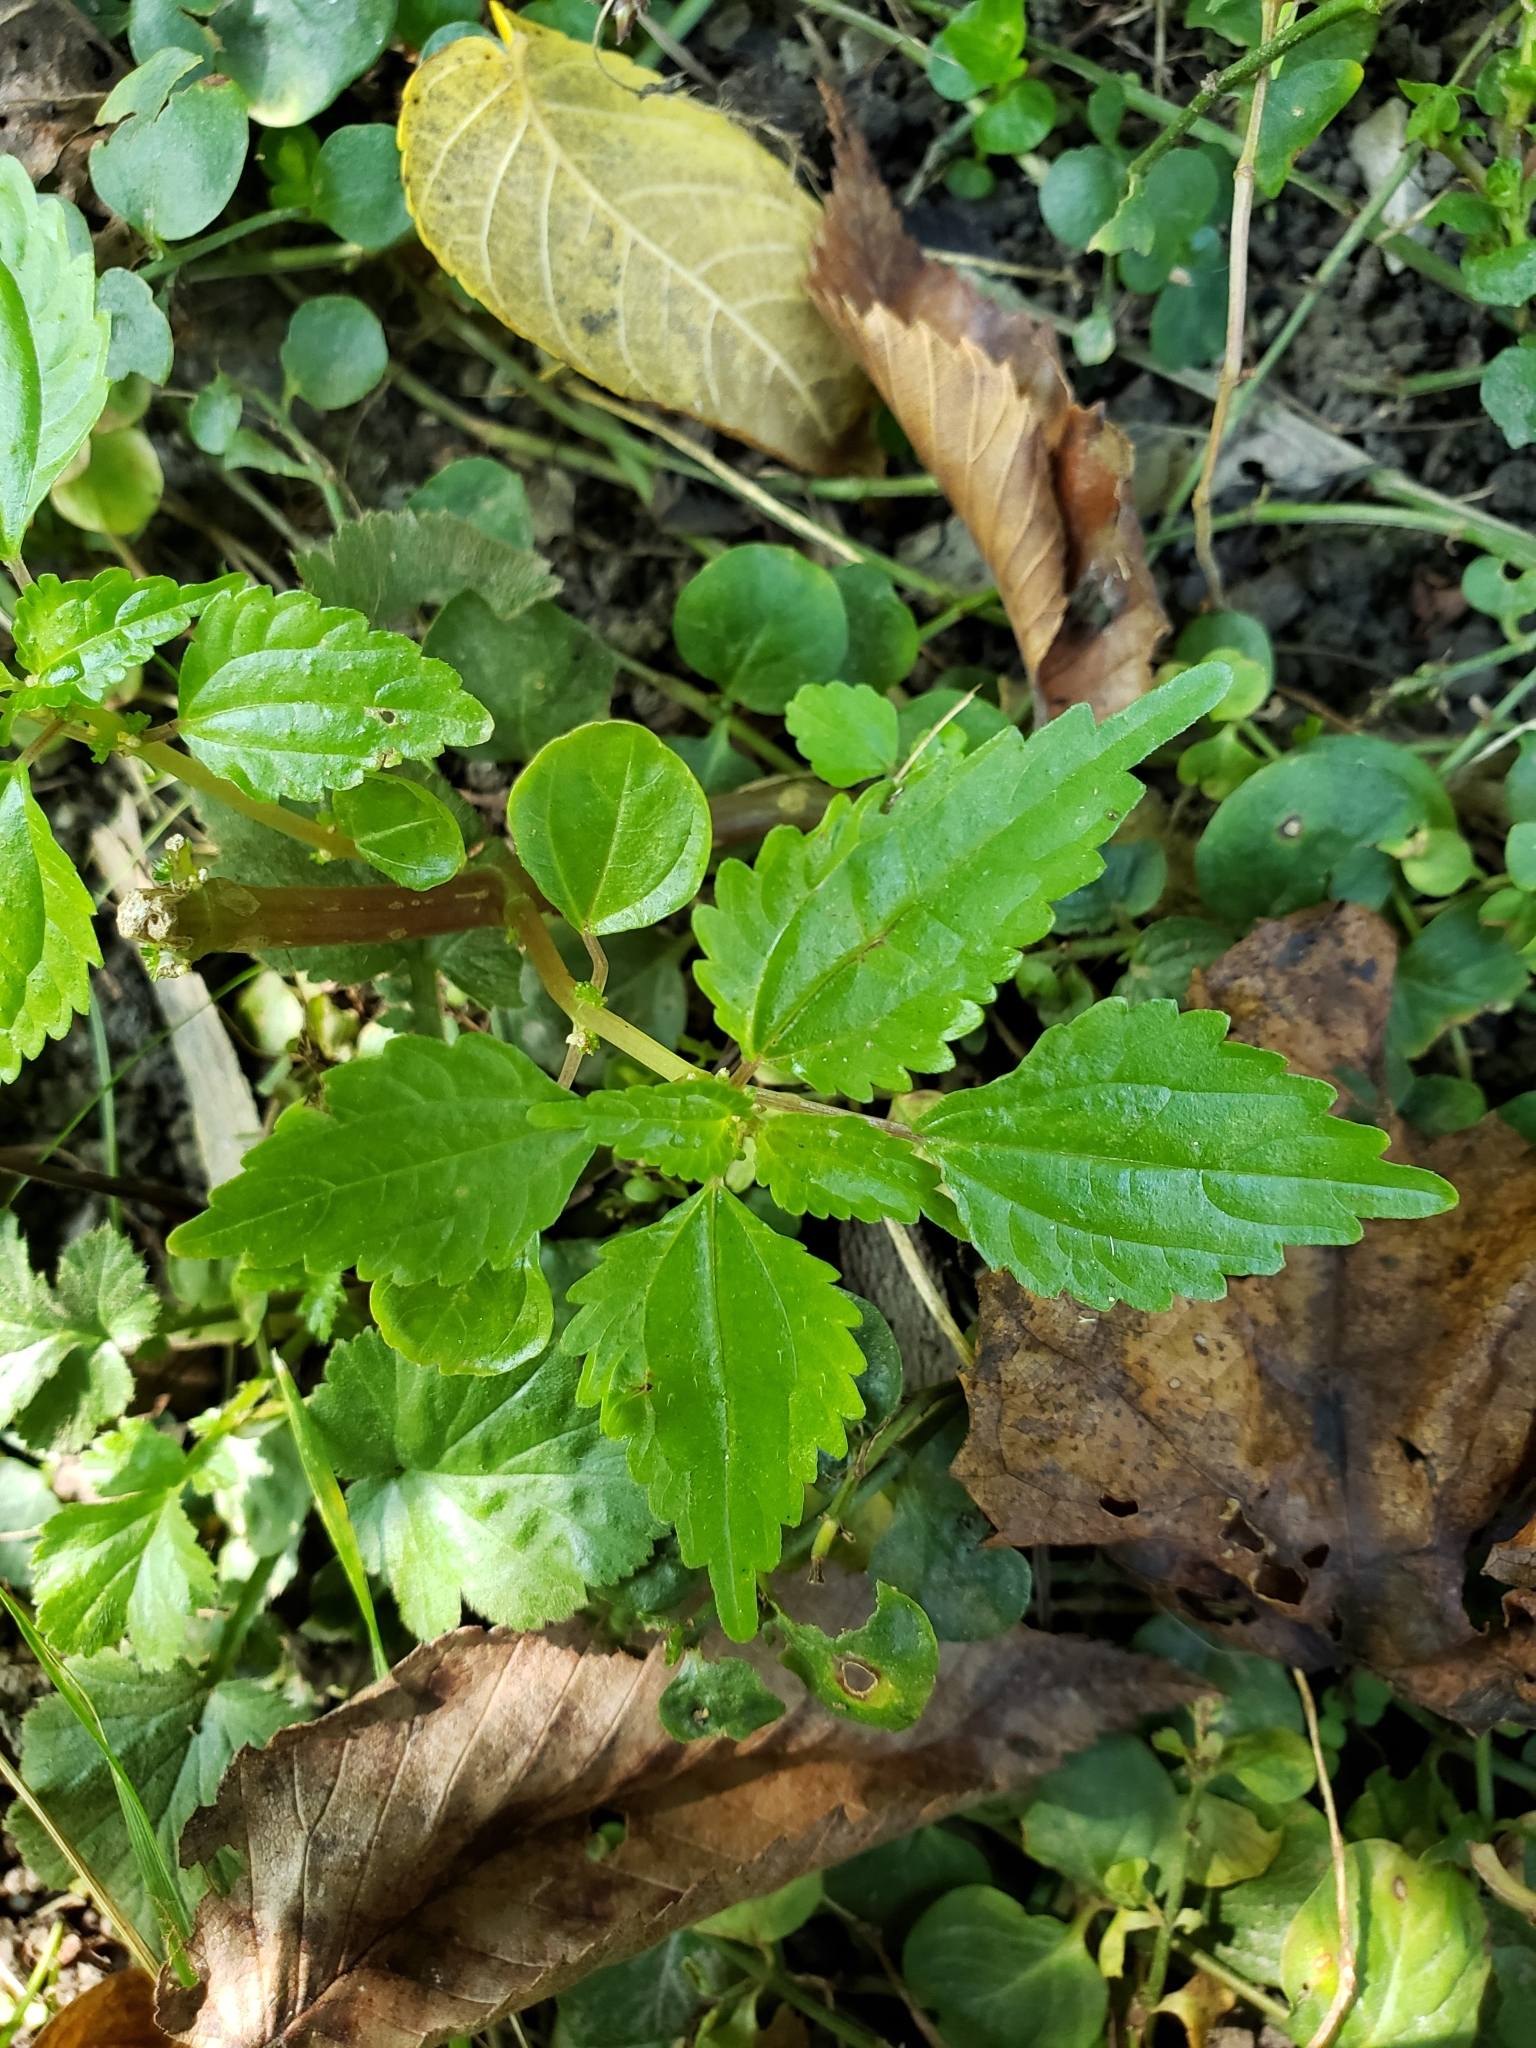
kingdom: Plantae
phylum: Tracheophyta
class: Magnoliopsida
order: Rosales
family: Urticaceae
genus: Pilea
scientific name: Pilea pumila
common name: Clearweed
